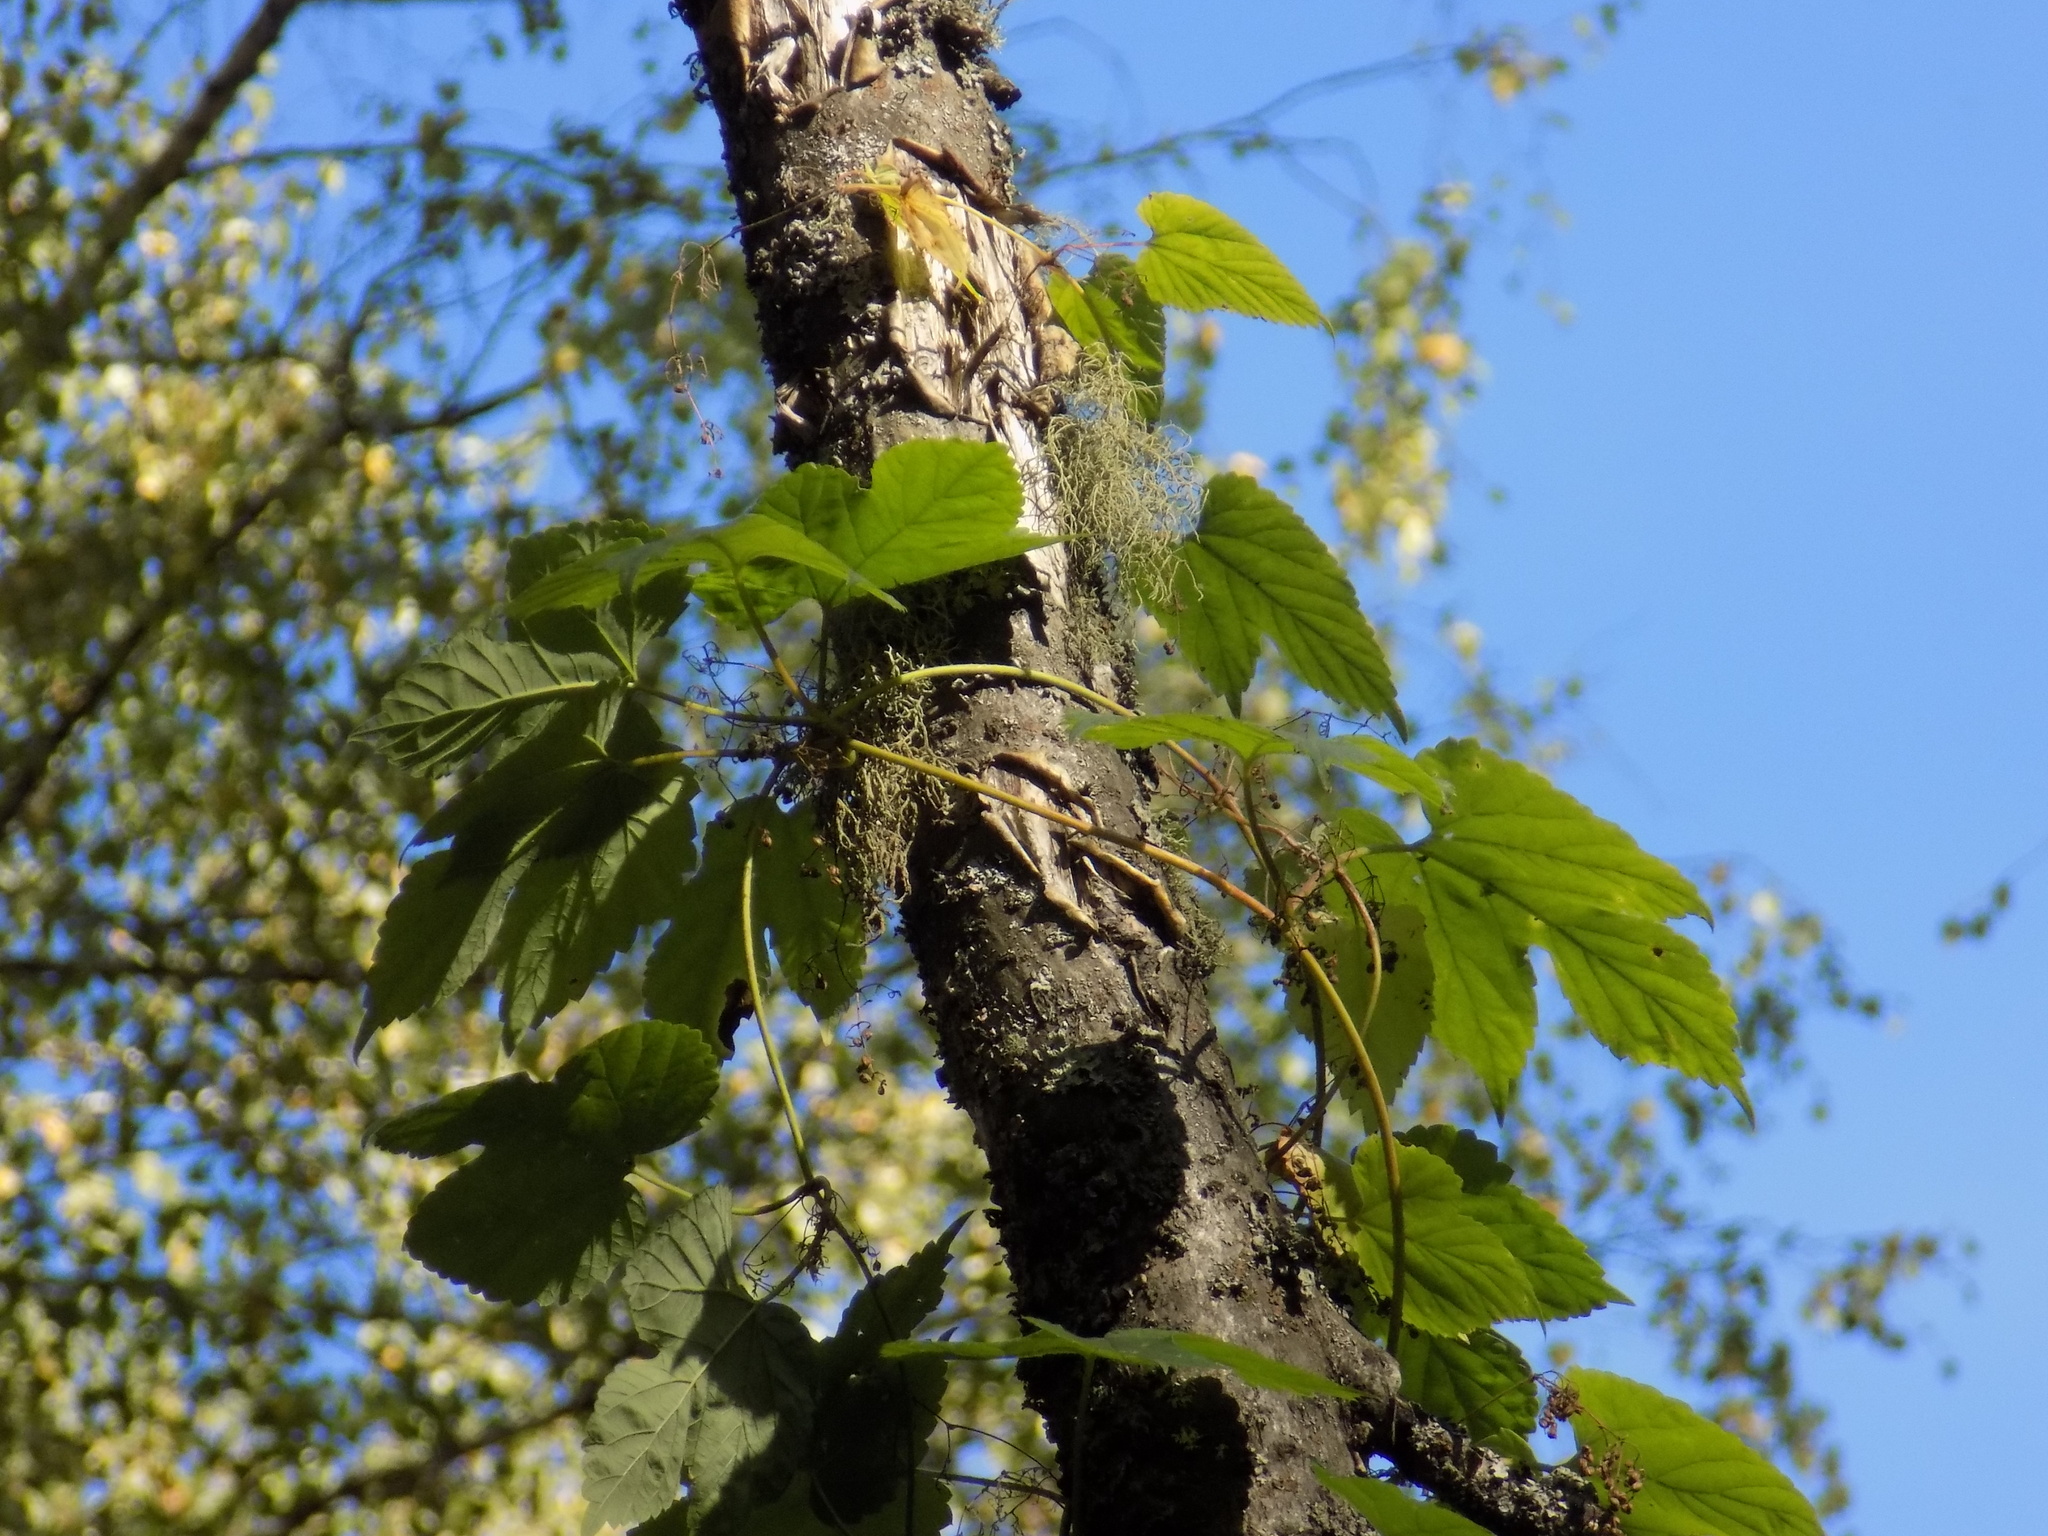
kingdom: Plantae
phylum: Tracheophyta
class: Magnoliopsida
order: Rosales
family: Cannabaceae
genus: Humulus
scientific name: Humulus lupulus
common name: Hop
